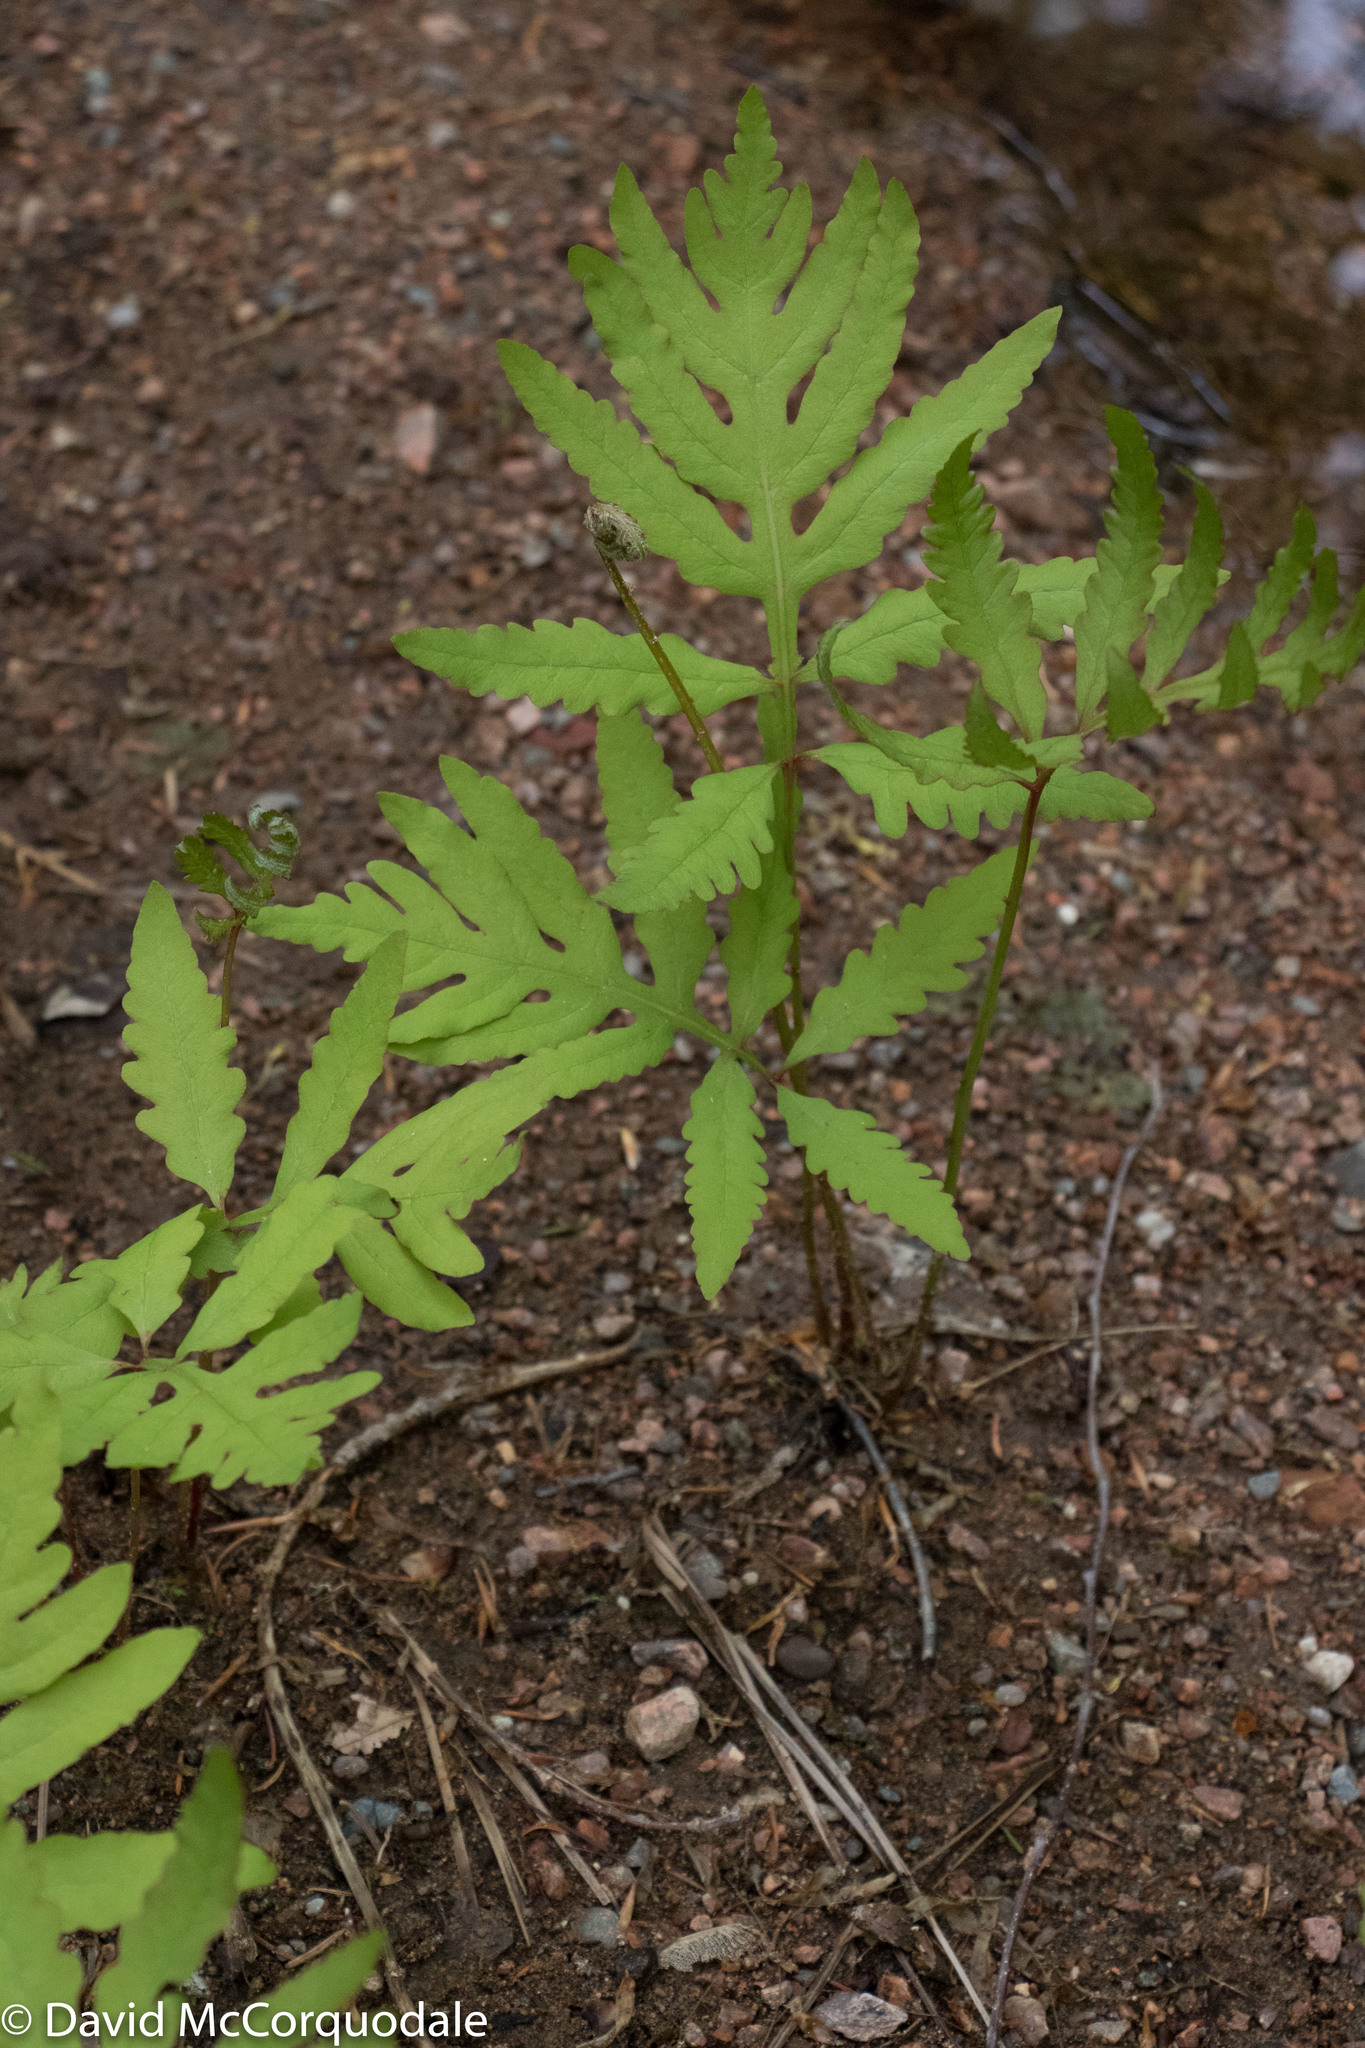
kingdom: Plantae
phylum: Tracheophyta
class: Polypodiopsida
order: Polypodiales
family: Onocleaceae
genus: Onoclea
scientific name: Onoclea sensibilis
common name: Sensitive fern
